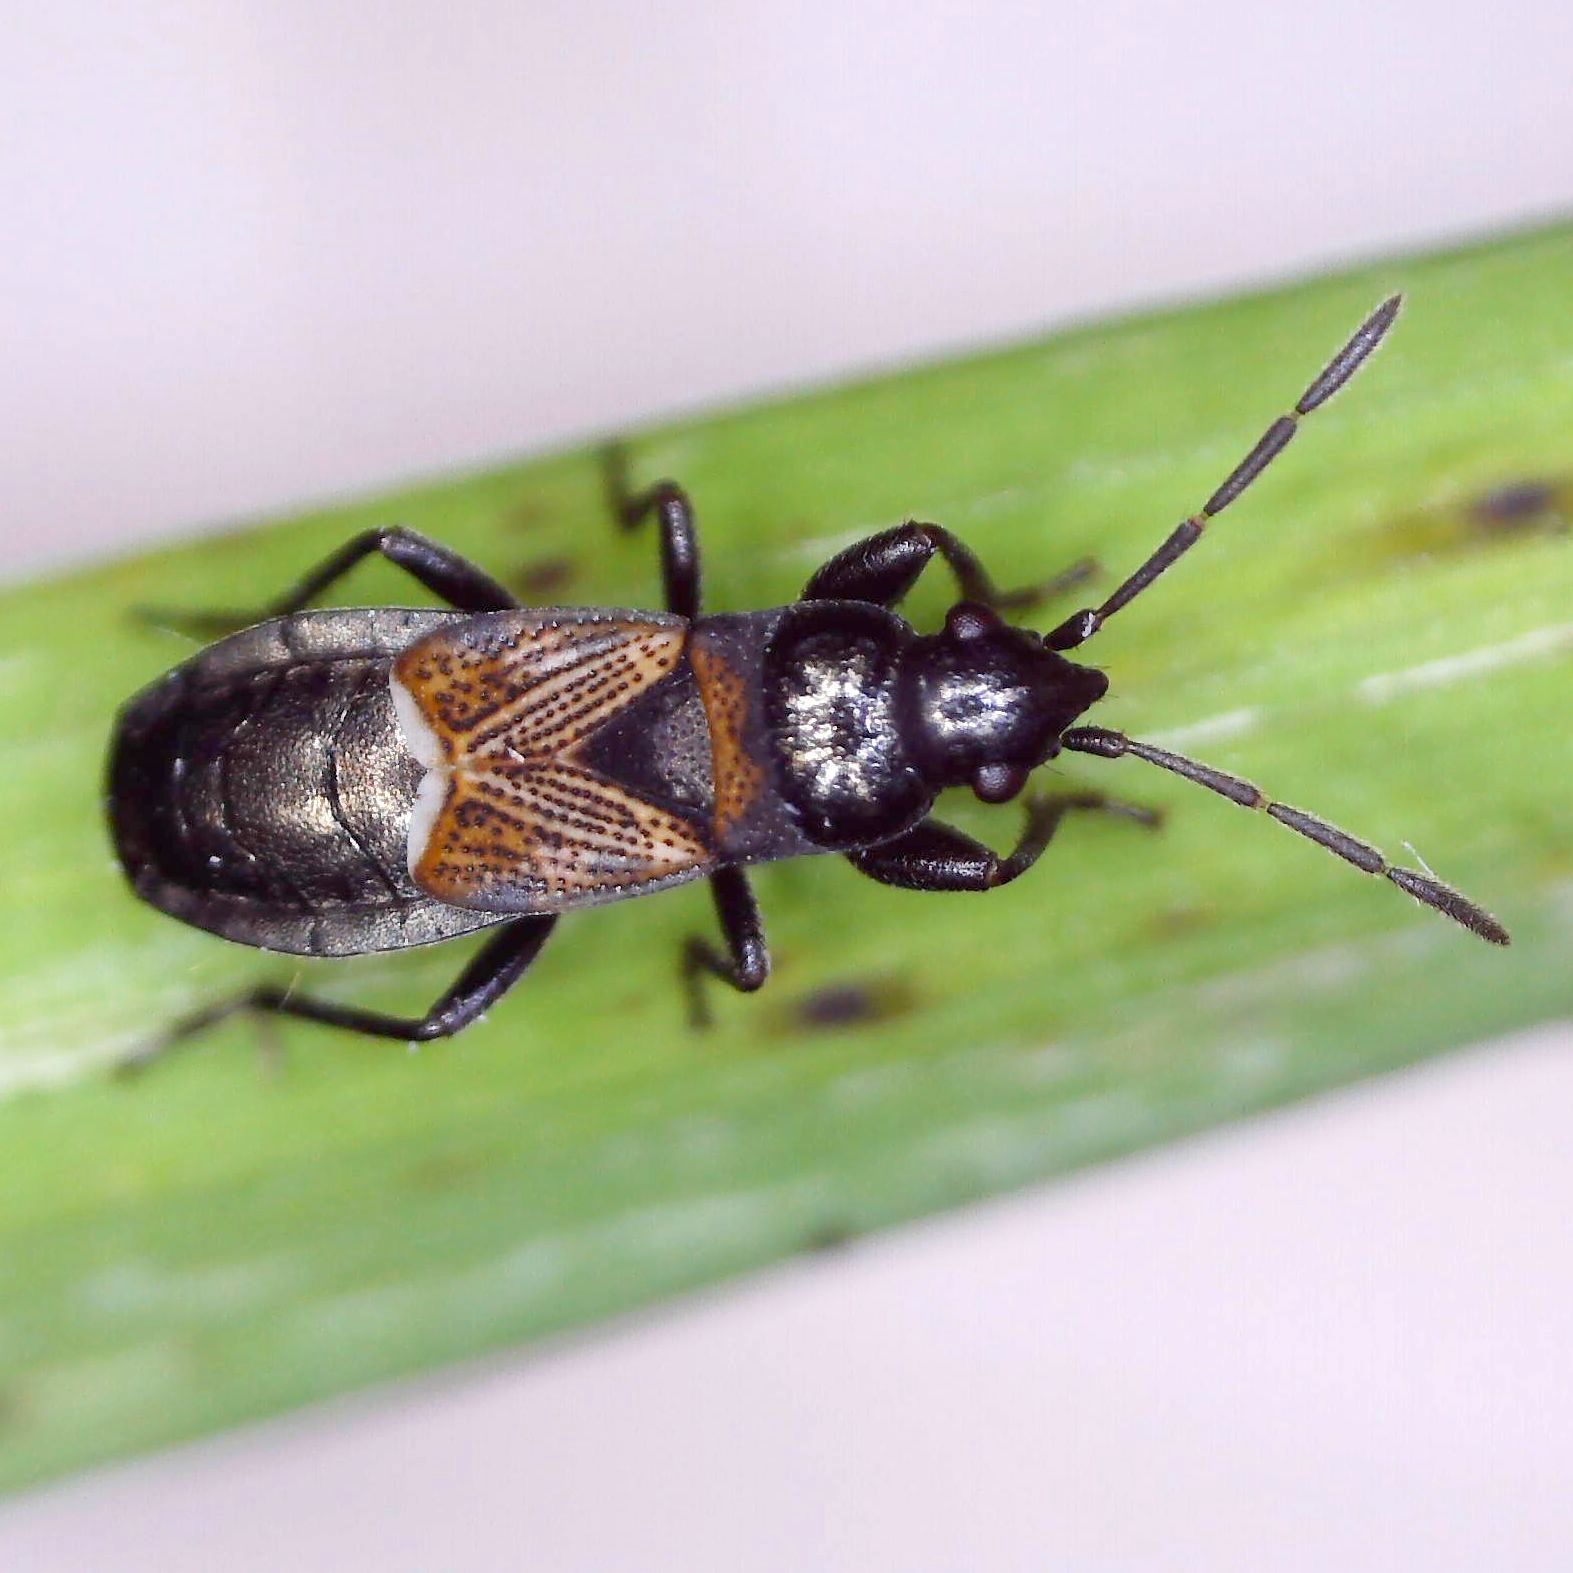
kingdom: Animalia
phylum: Arthropoda
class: Insecta
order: Hemiptera
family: Rhyparochromidae
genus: Macrodema
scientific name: Macrodema microptera
